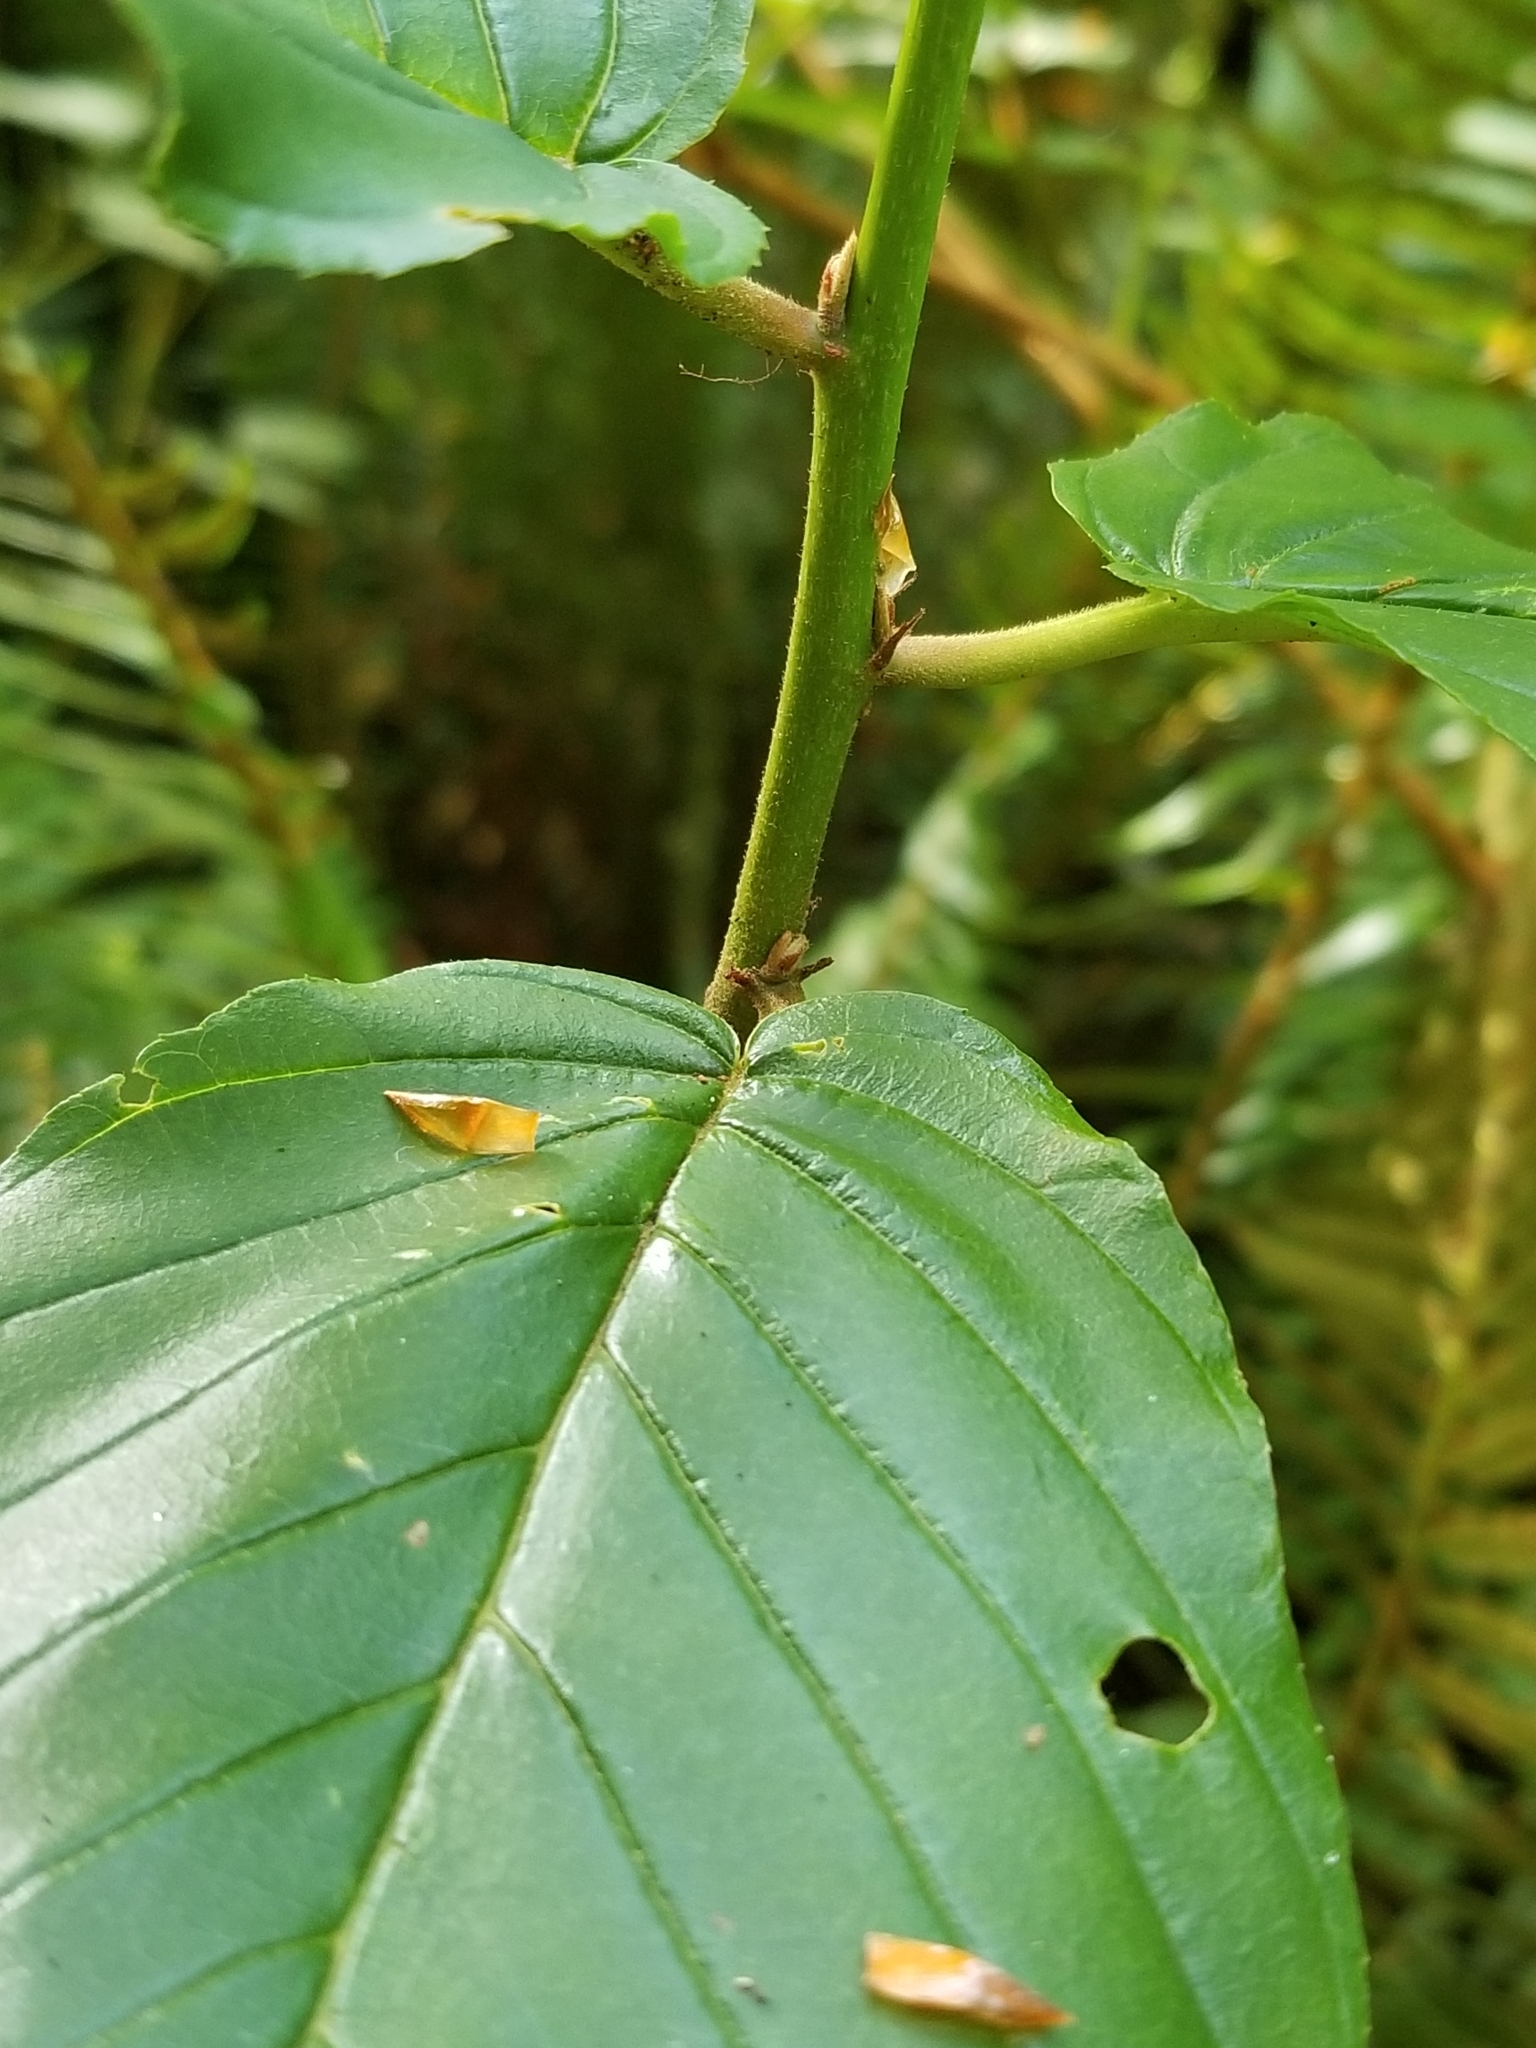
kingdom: Plantae
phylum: Tracheophyta
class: Magnoliopsida
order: Rosales
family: Rhamnaceae
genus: Frangula
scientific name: Frangula purshiana
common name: Cascara buckthorn
